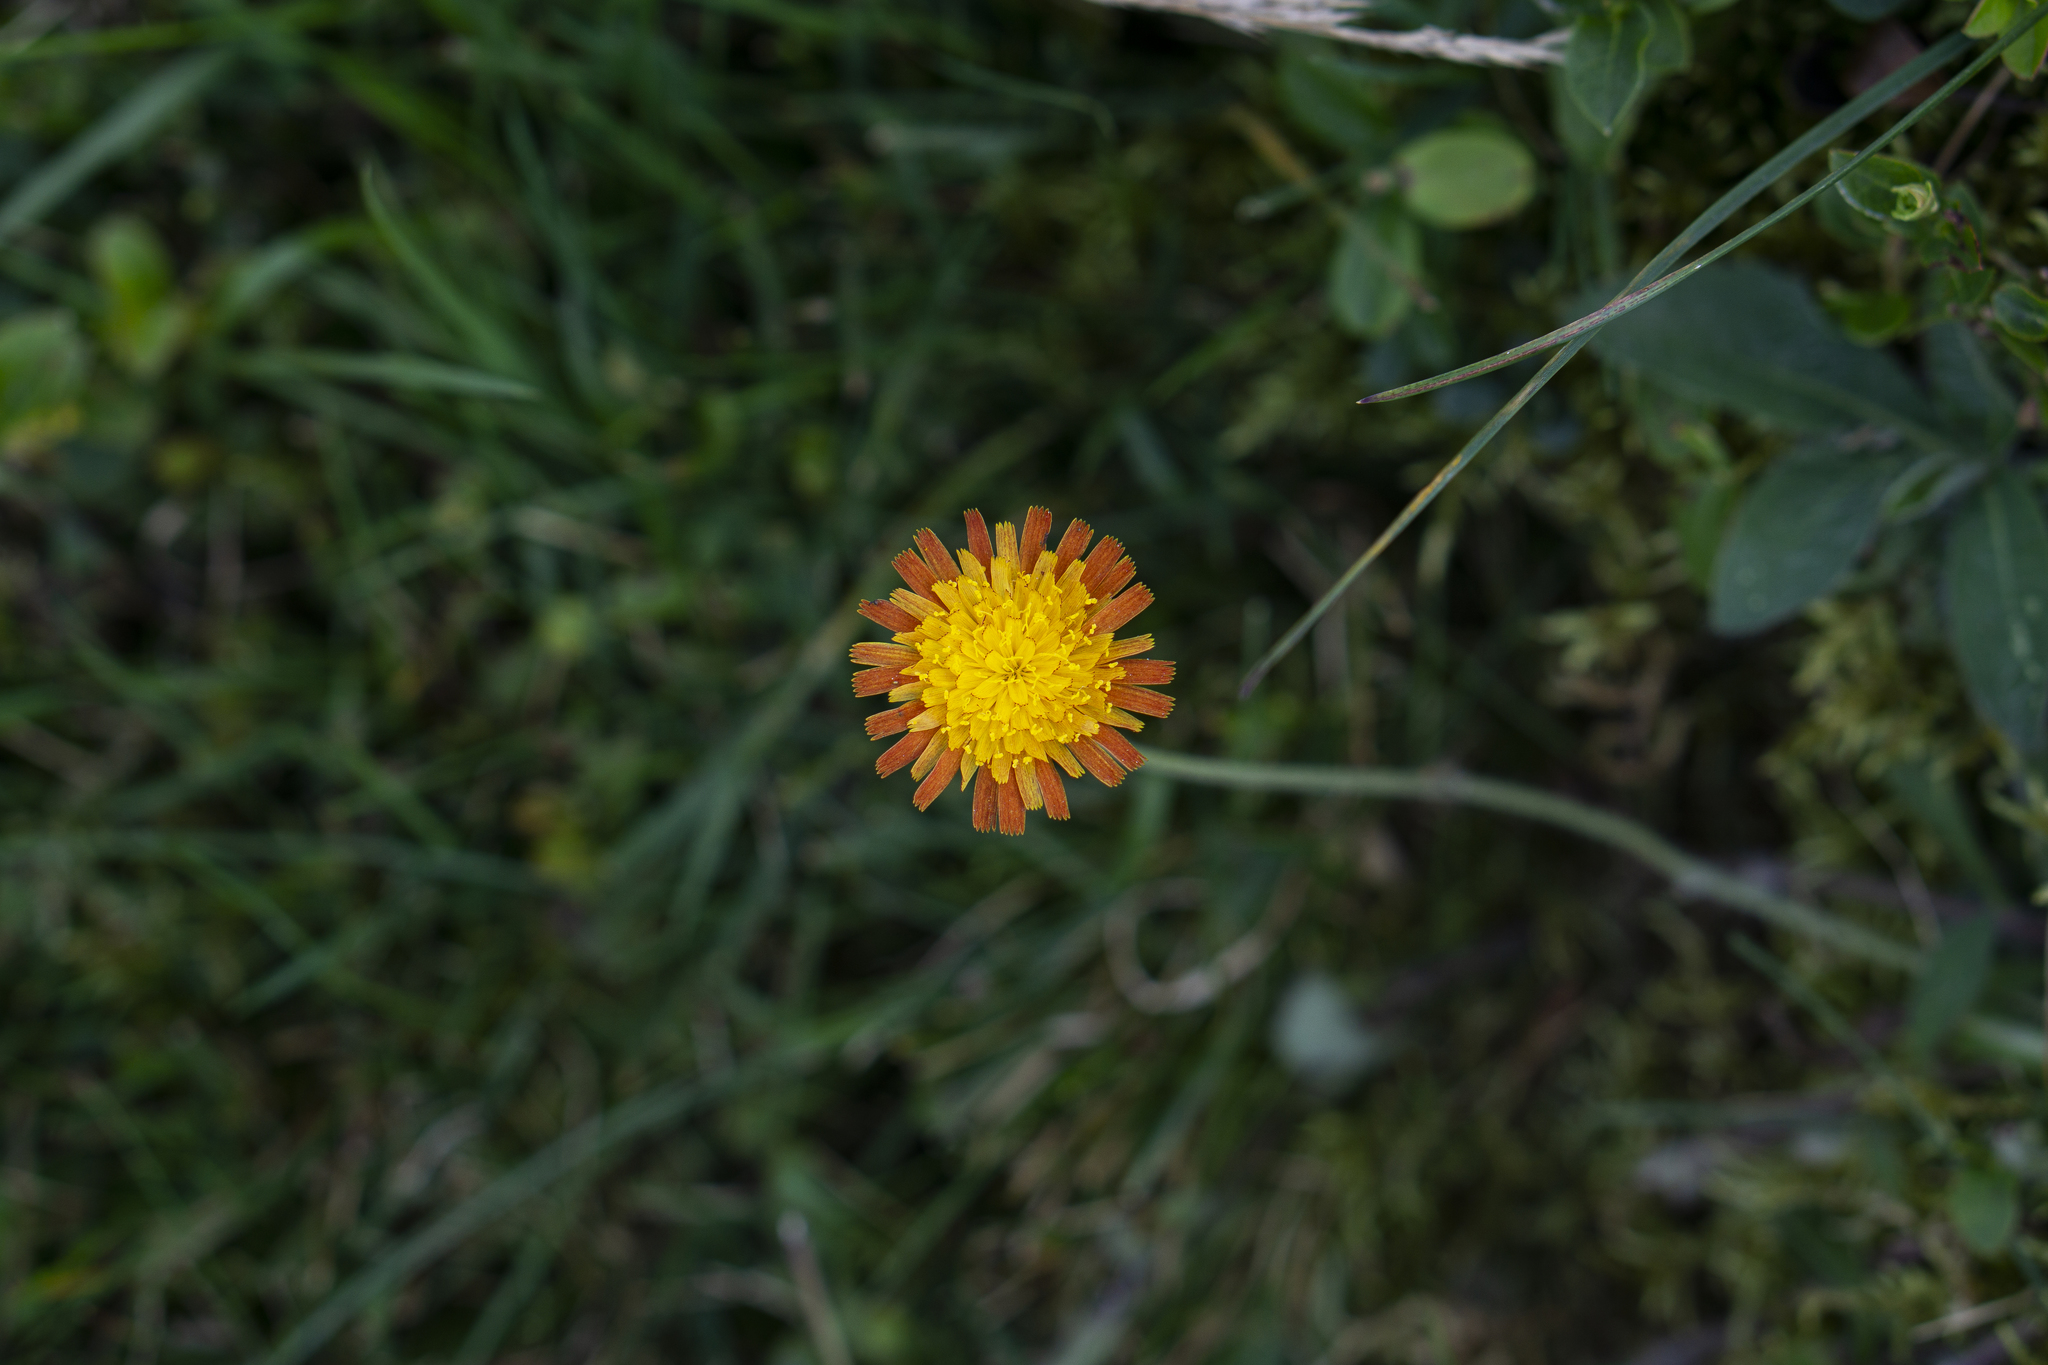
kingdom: Plantae
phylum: Tracheophyta
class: Magnoliopsida
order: Asterales
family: Asteraceae
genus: Pilosella
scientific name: Pilosella aurantiaca
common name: Fox-and-cubs
